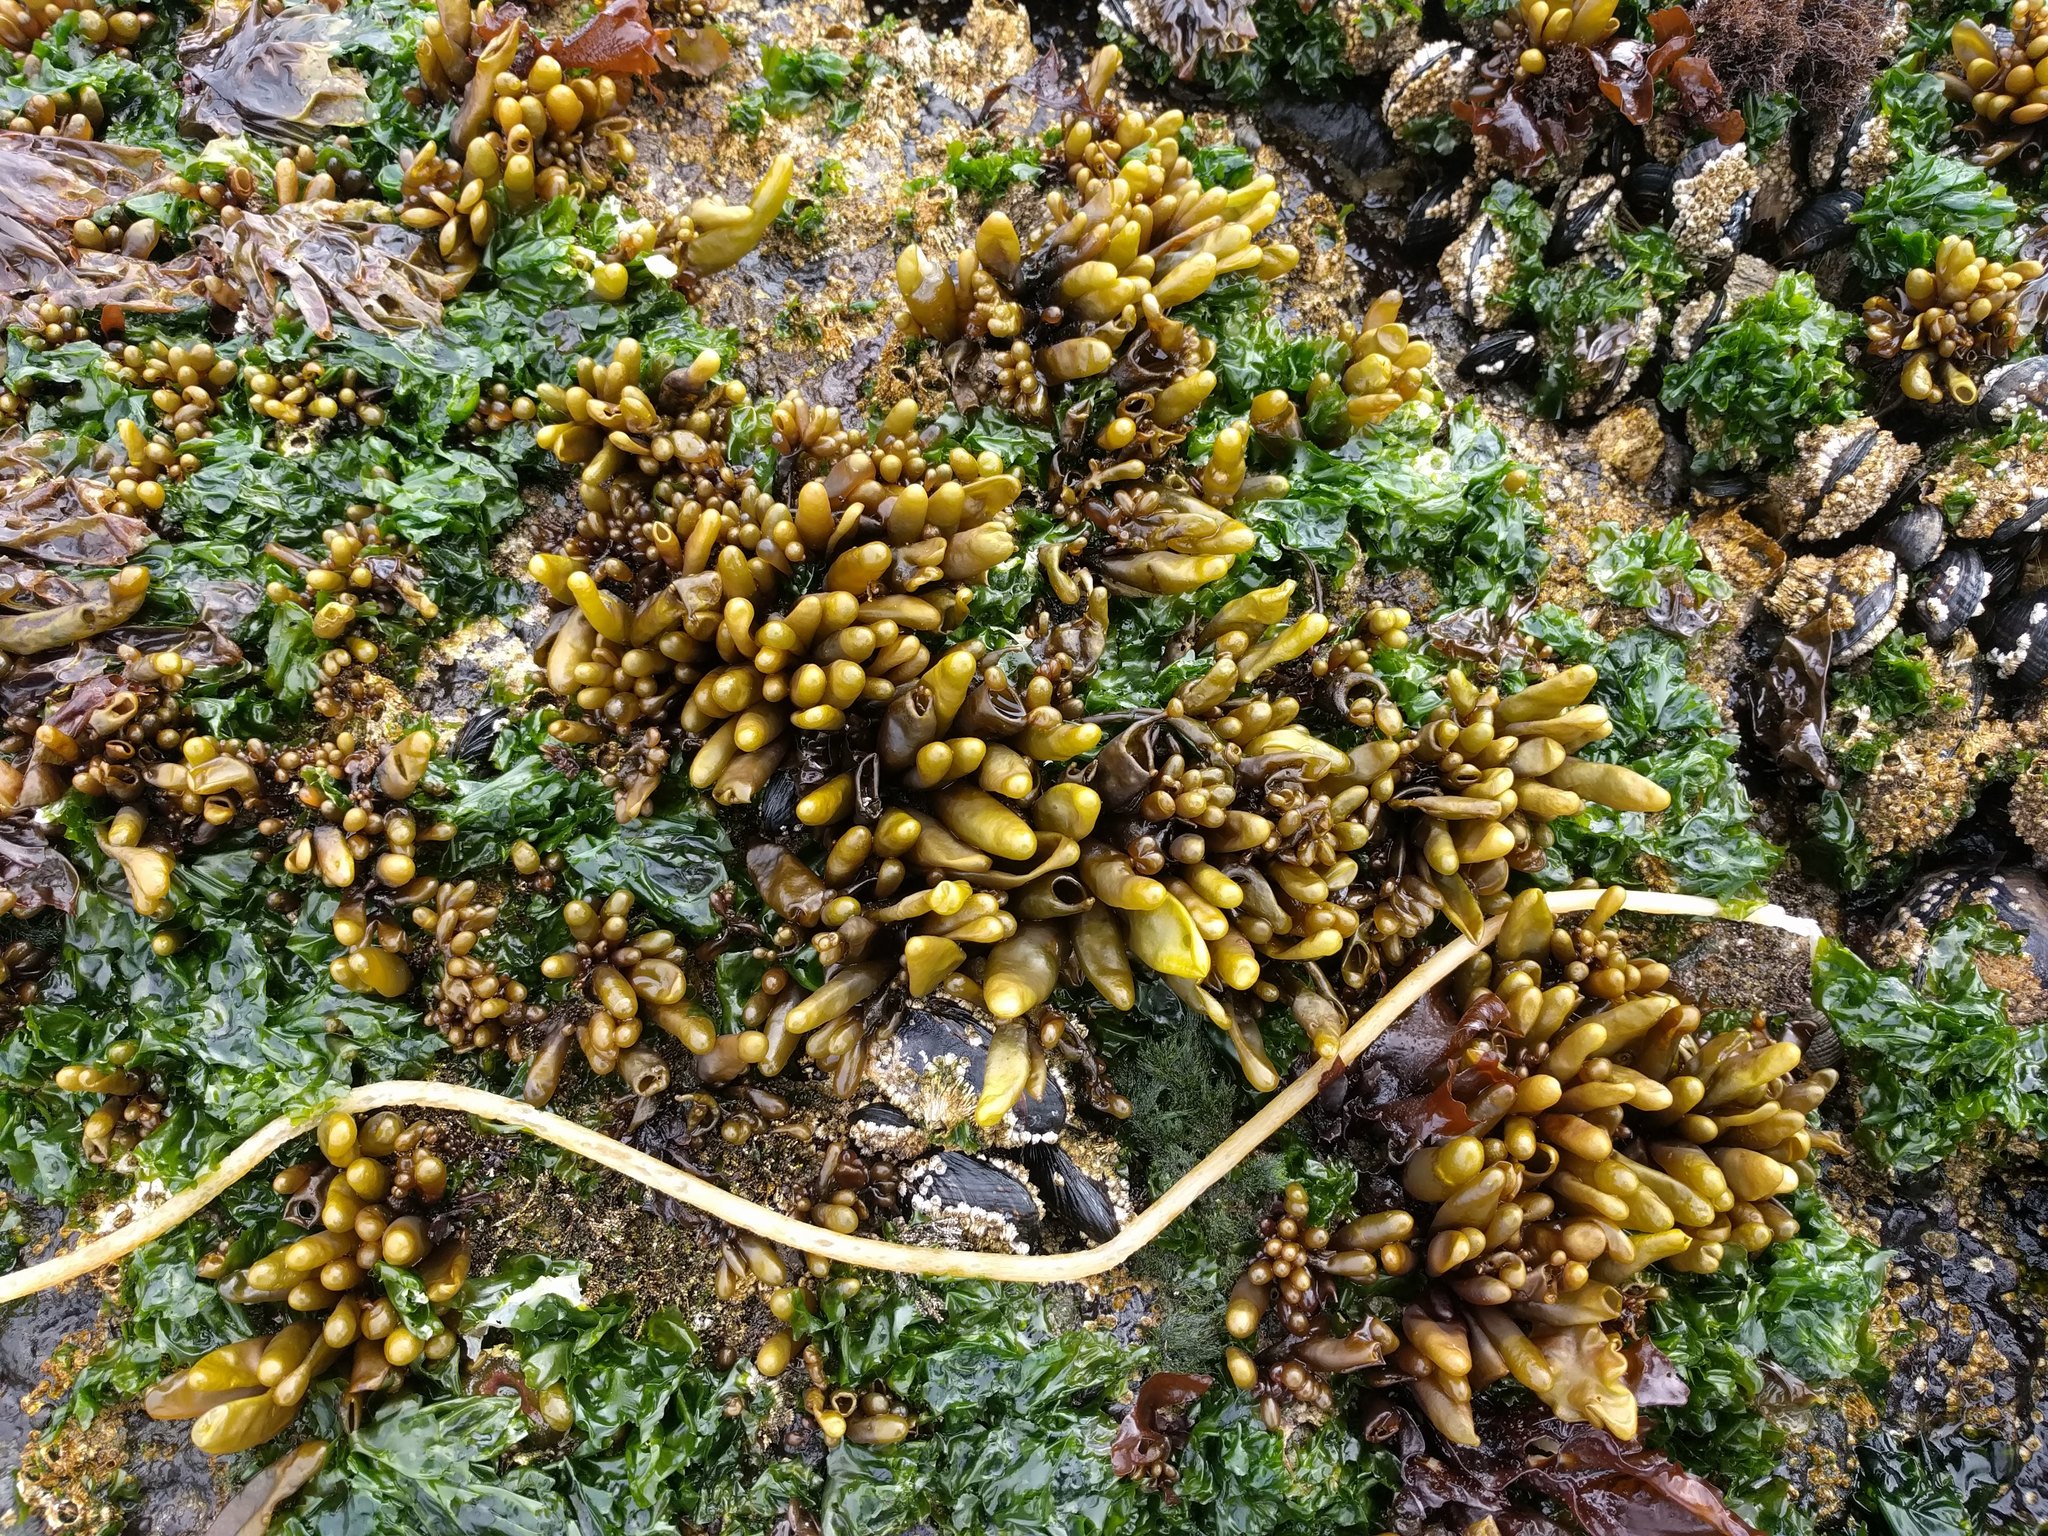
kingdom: Plantae
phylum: Rhodophyta
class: Florideophyceae
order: Palmariales
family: Palmariaceae
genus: Halosaccion
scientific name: Halosaccion glandiforme
